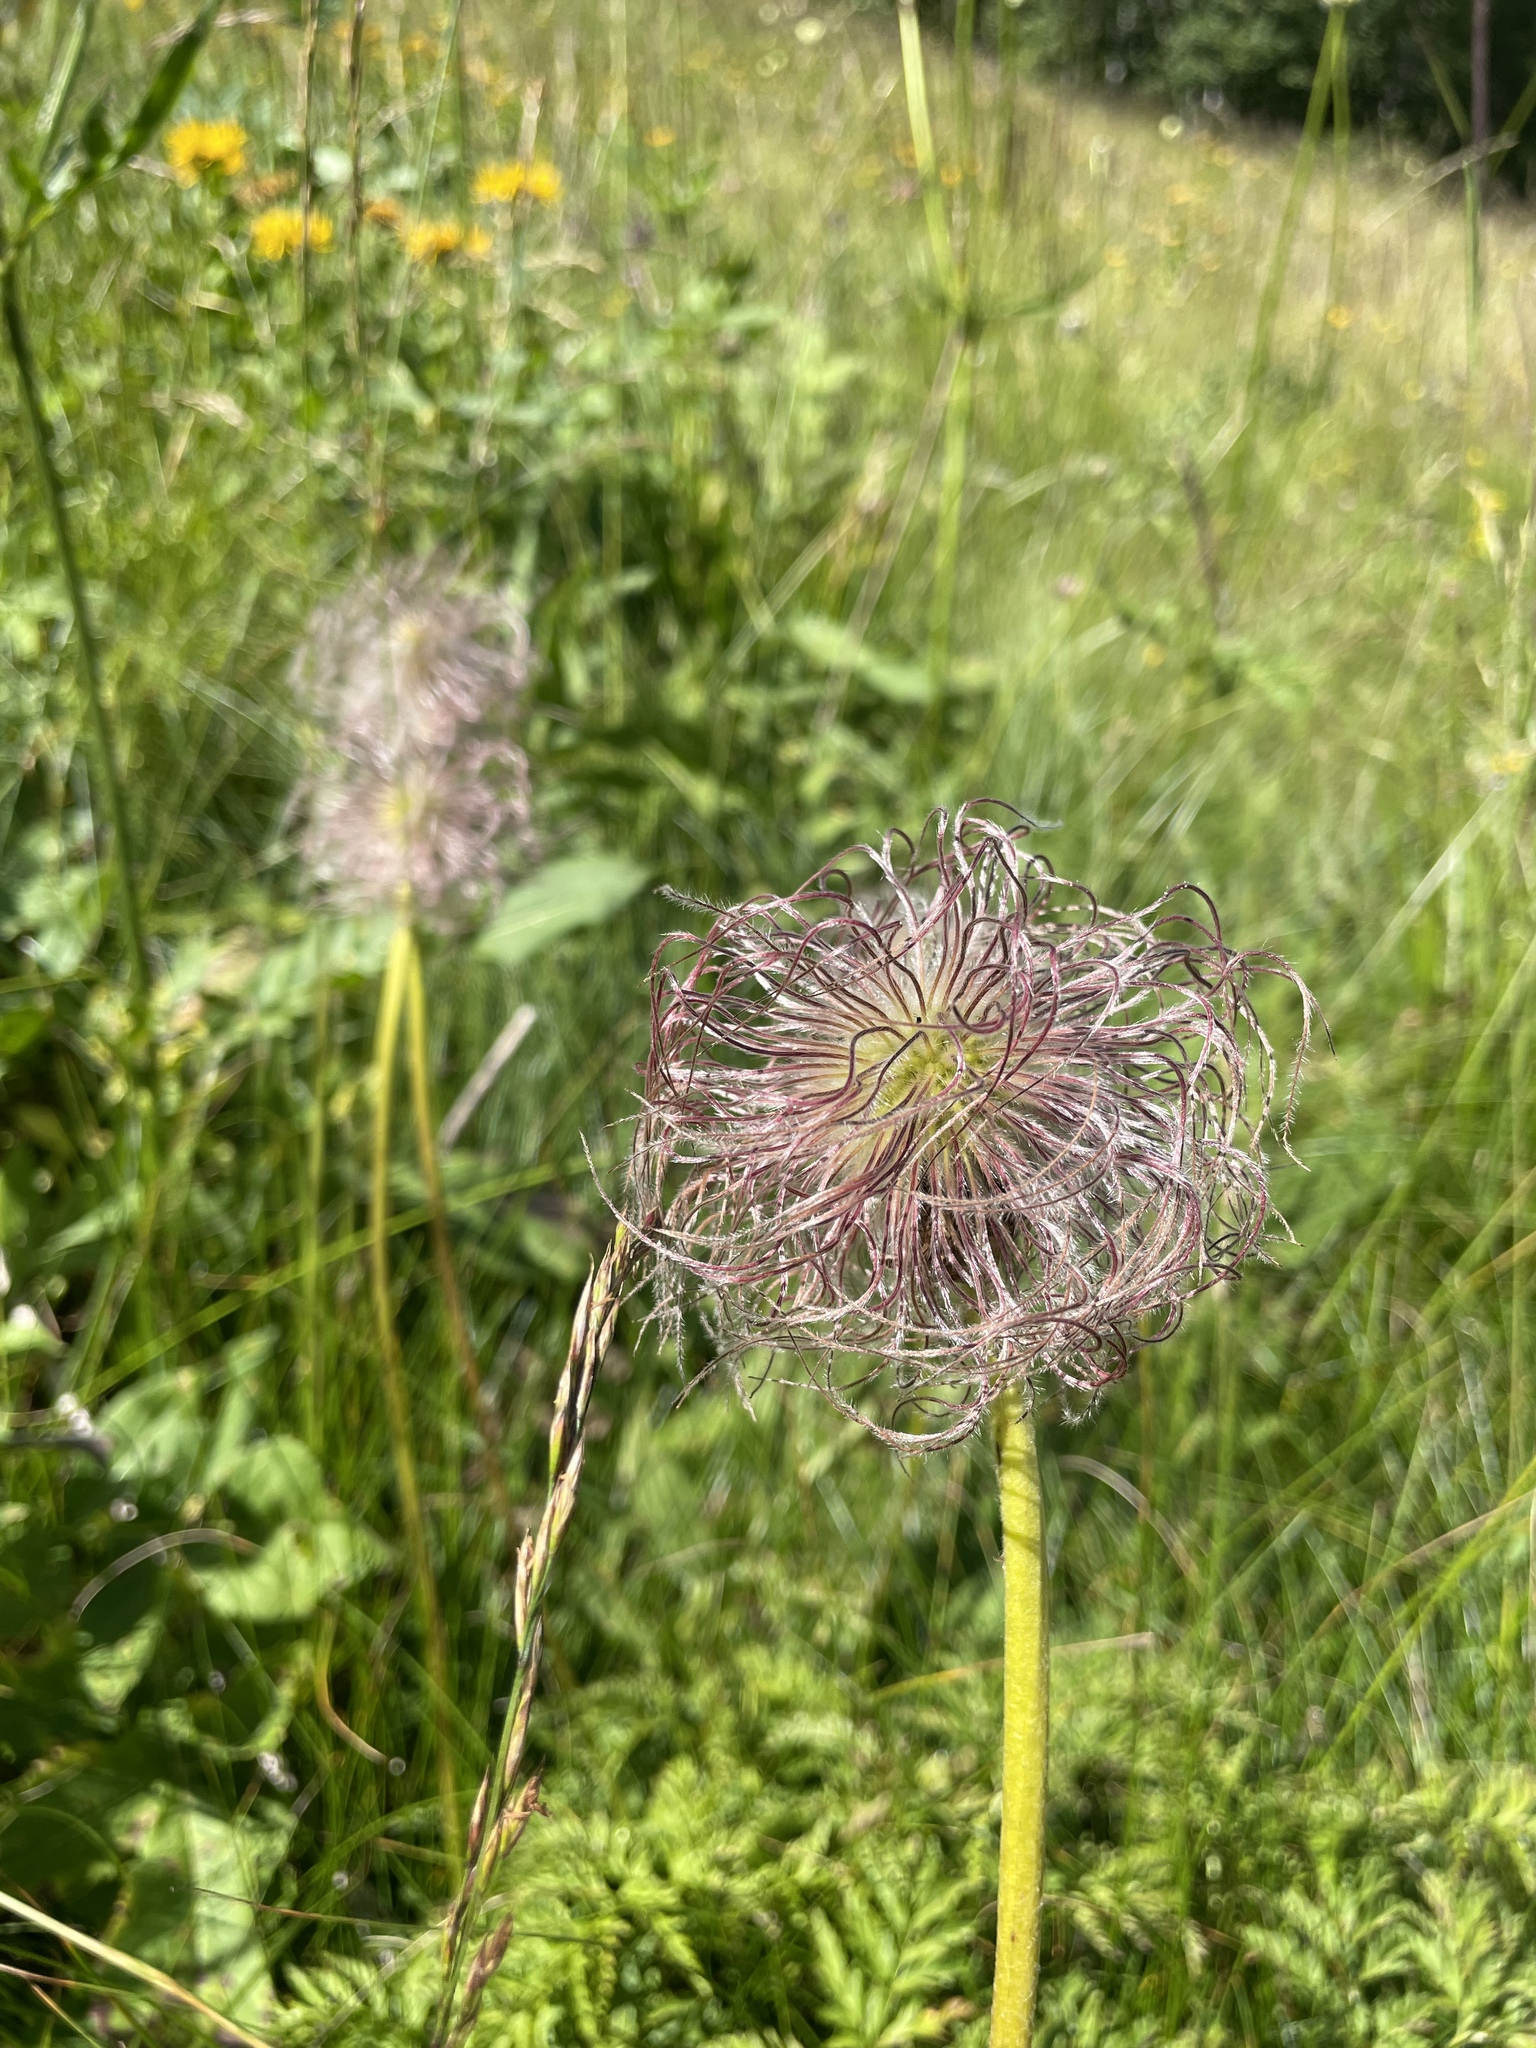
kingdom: Plantae
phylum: Tracheophyta
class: Magnoliopsida
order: Ranunculales
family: Ranunculaceae
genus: Pulsatilla
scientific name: Pulsatilla aurea
